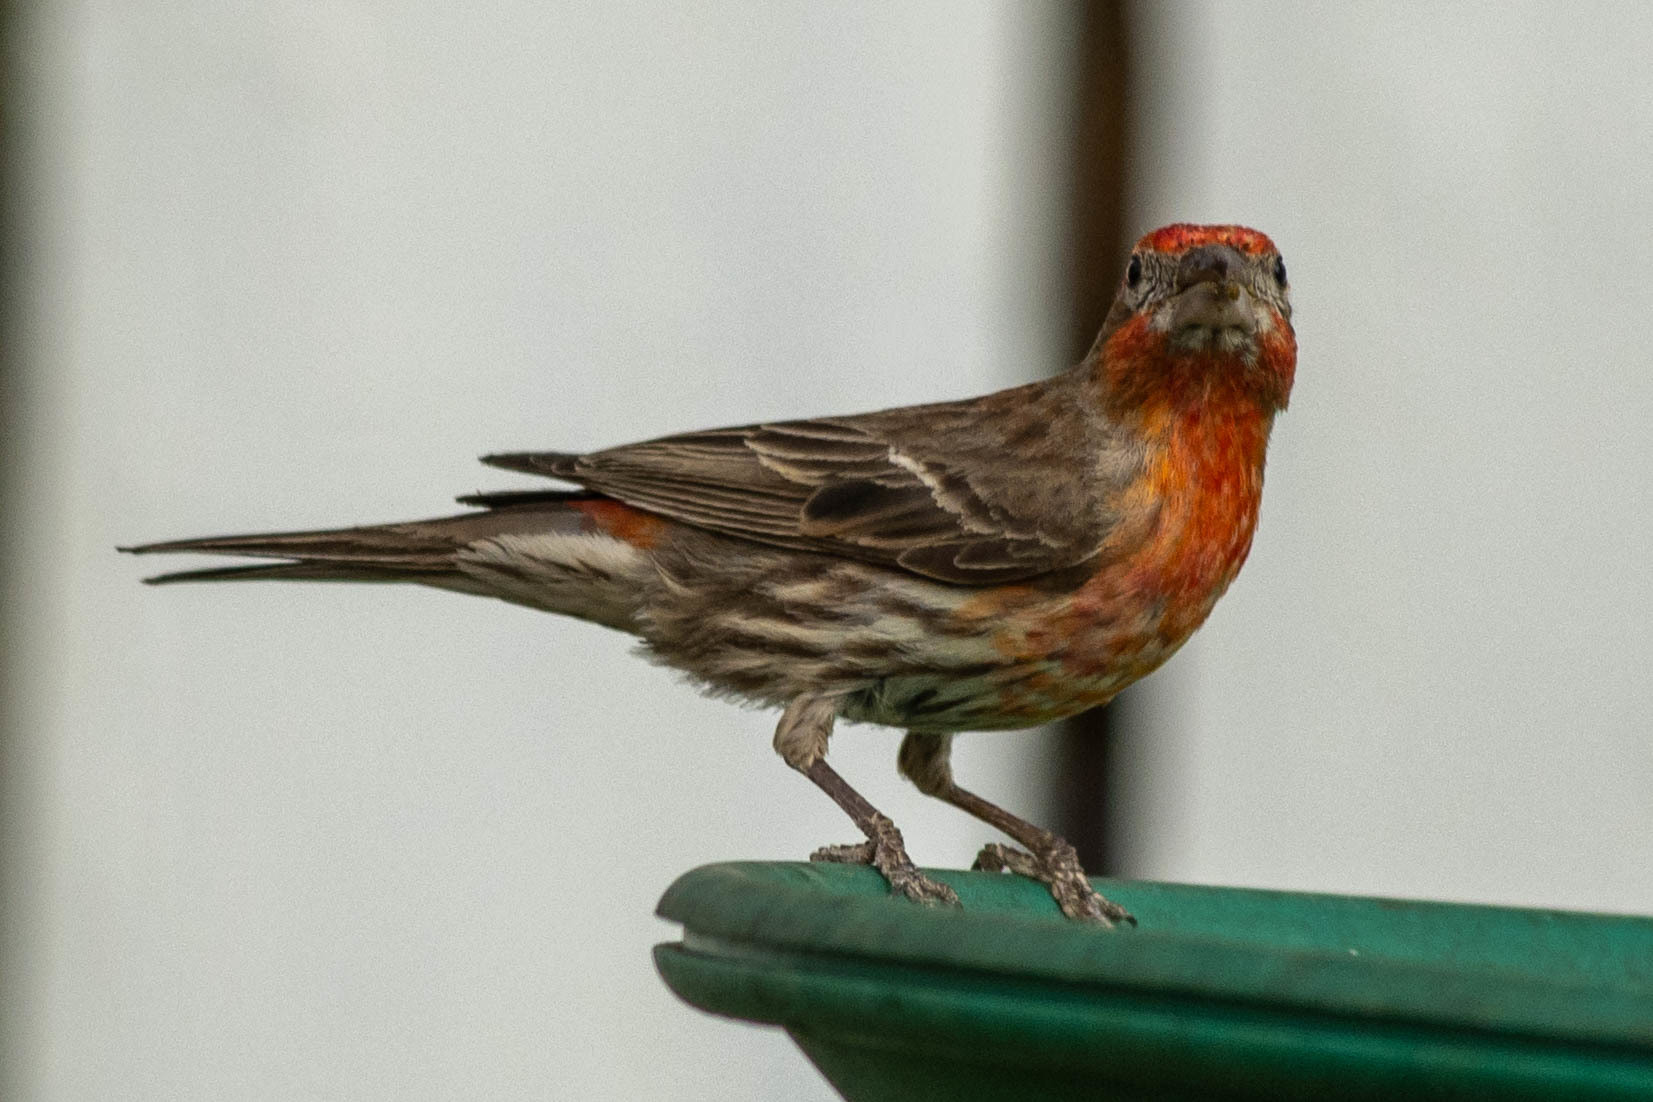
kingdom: Animalia
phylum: Chordata
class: Aves
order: Passeriformes
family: Fringillidae
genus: Haemorhous
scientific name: Haemorhous mexicanus
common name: House finch
